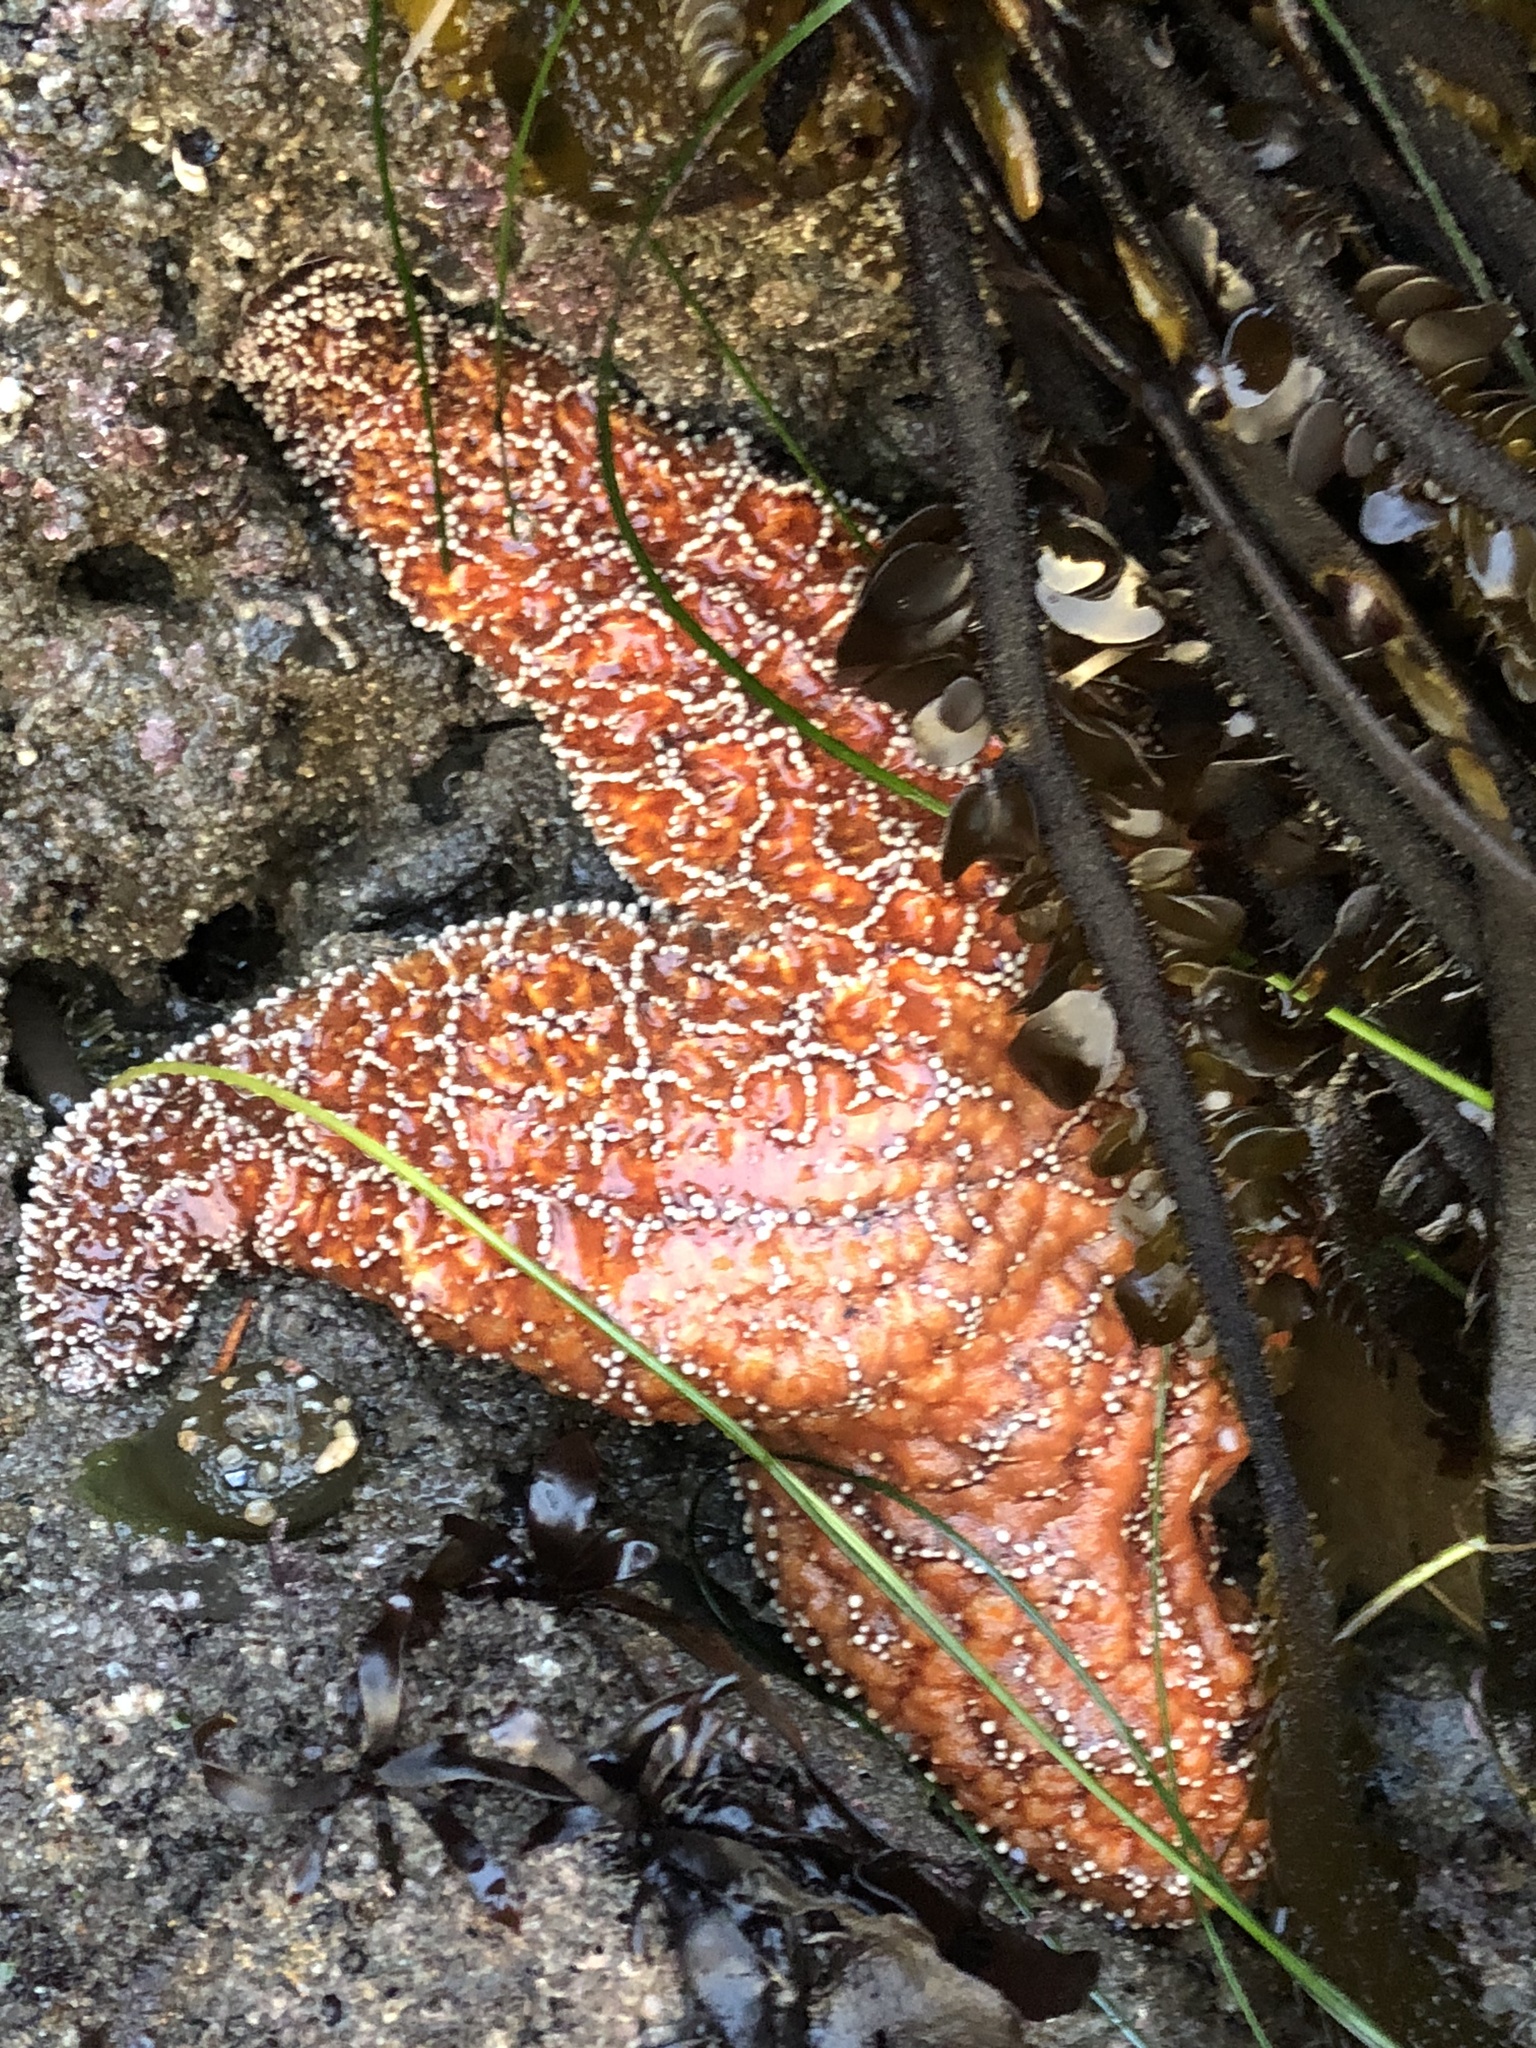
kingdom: Animalia
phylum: Echinodermata
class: Asteroidea
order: Forcipulatida
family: Asteriidae
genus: Pisaster
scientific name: Pisaster ochraceus
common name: Ochre stars
